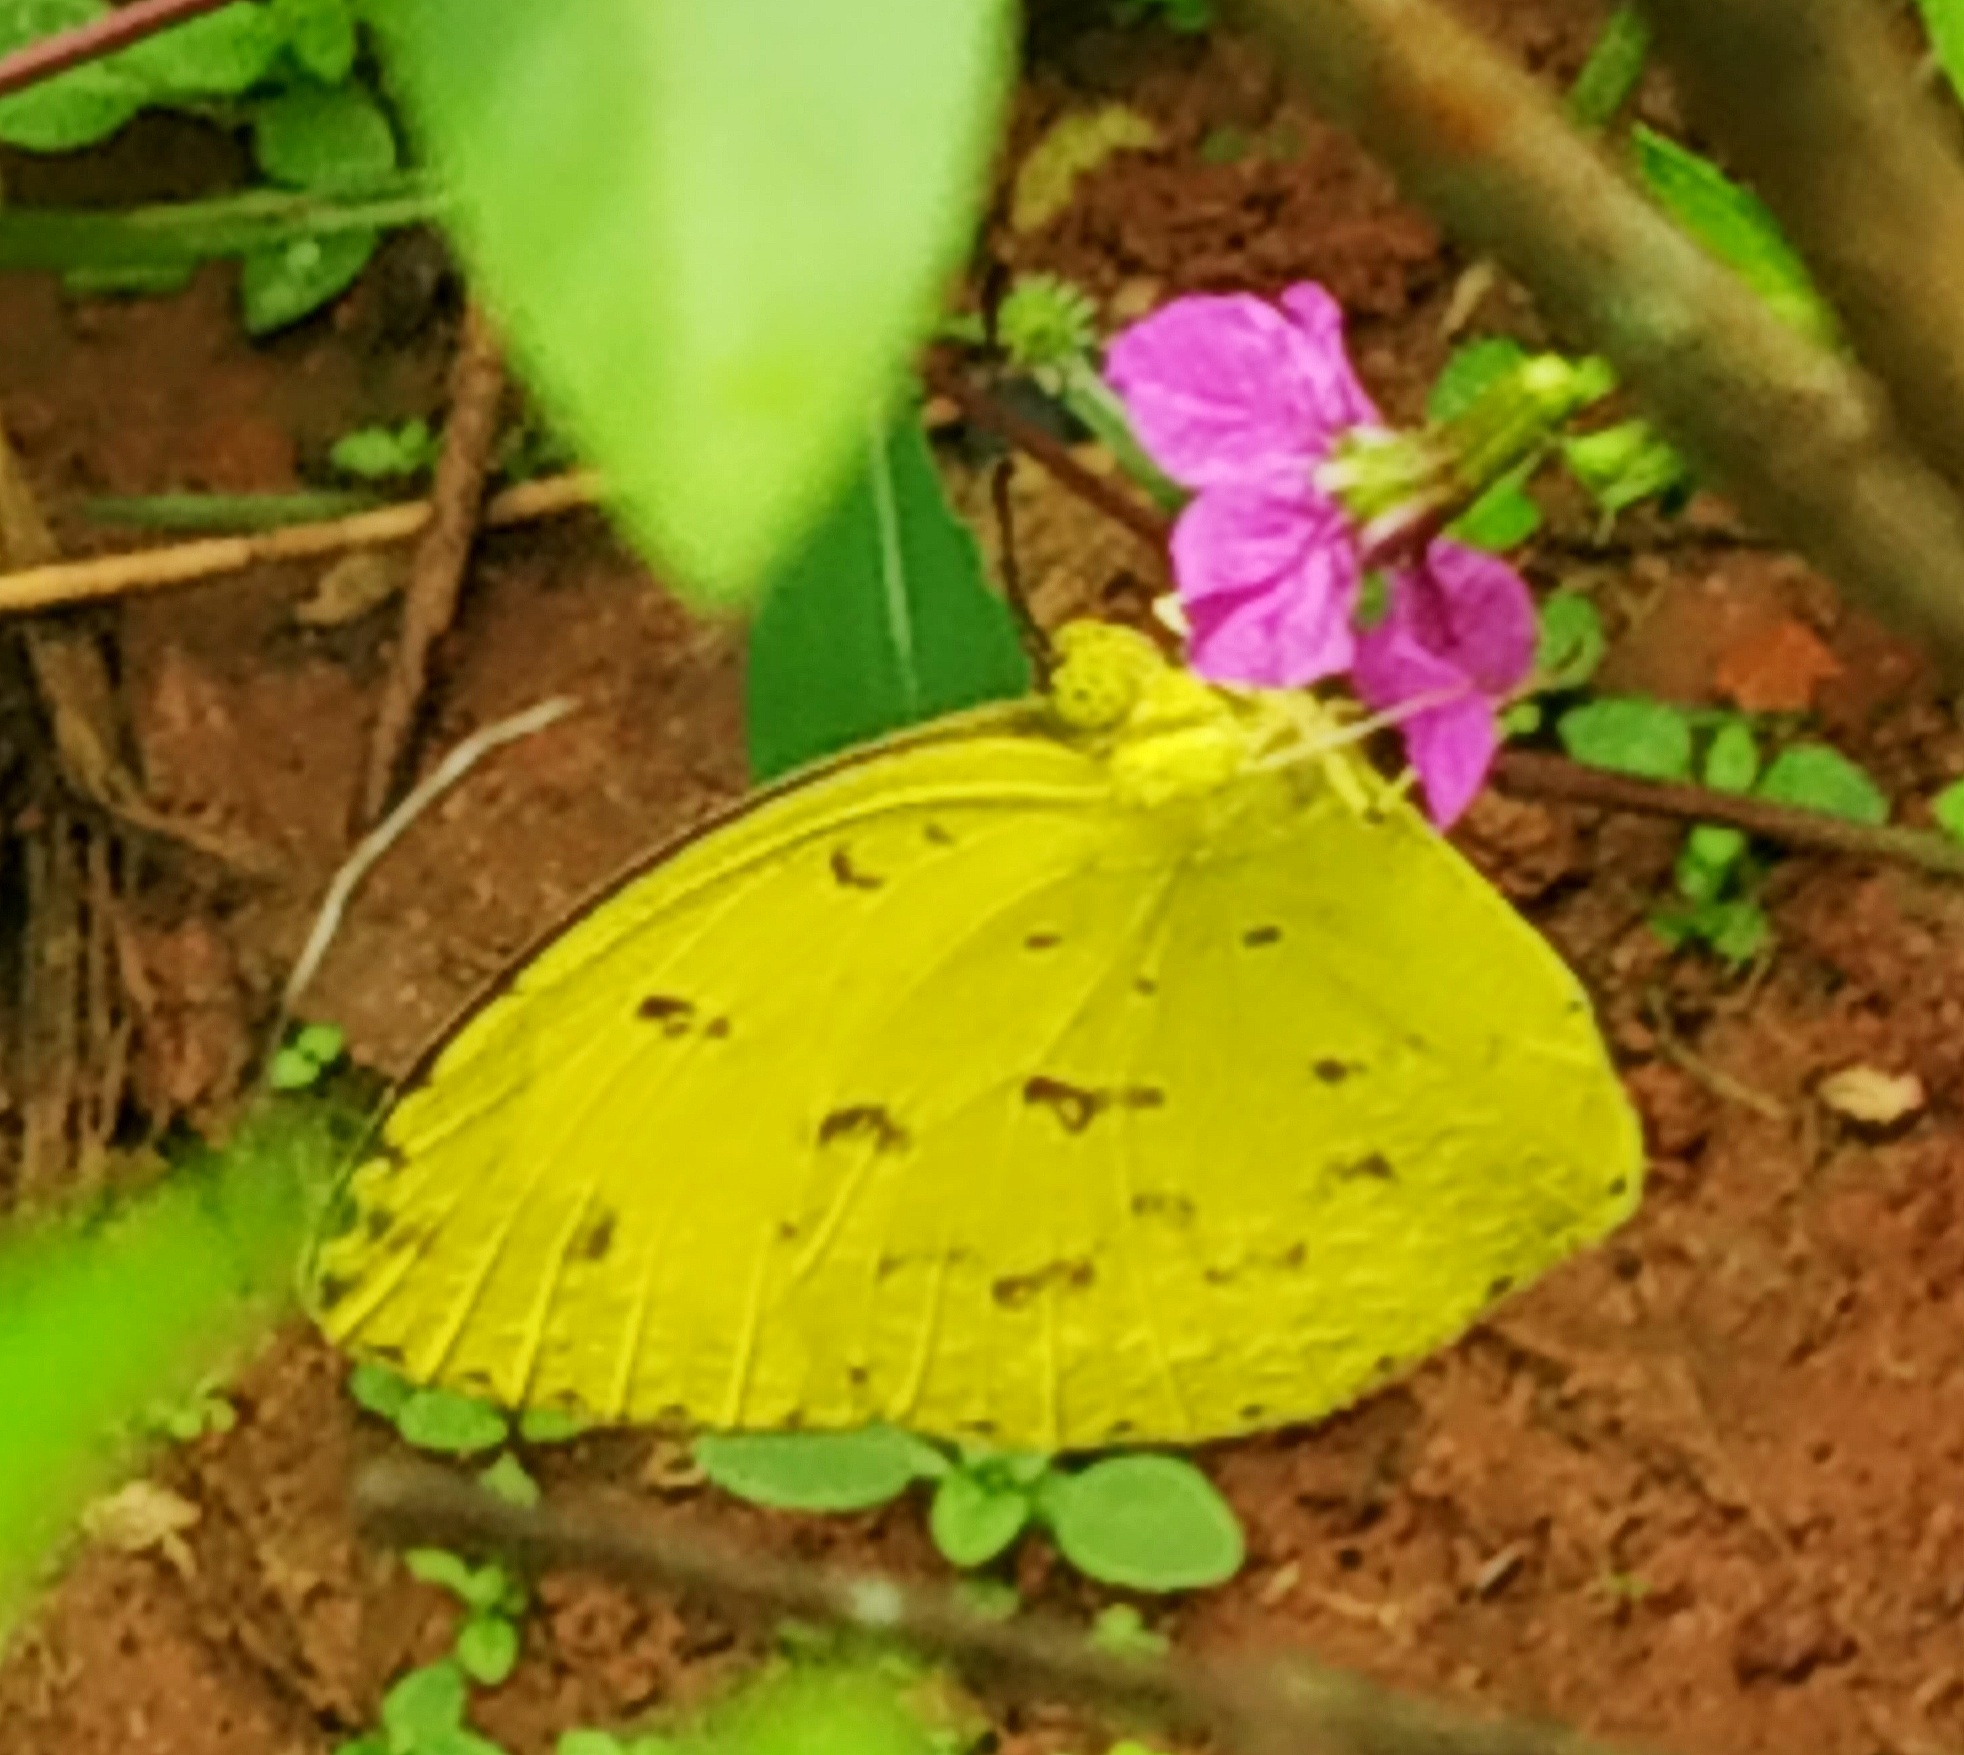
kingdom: Animalia
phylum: Arthropoda
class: Insecta
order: Lepidoptera
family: Pieridae
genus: Eurema
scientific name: Eurema hecabe
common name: Pale grass yellow
